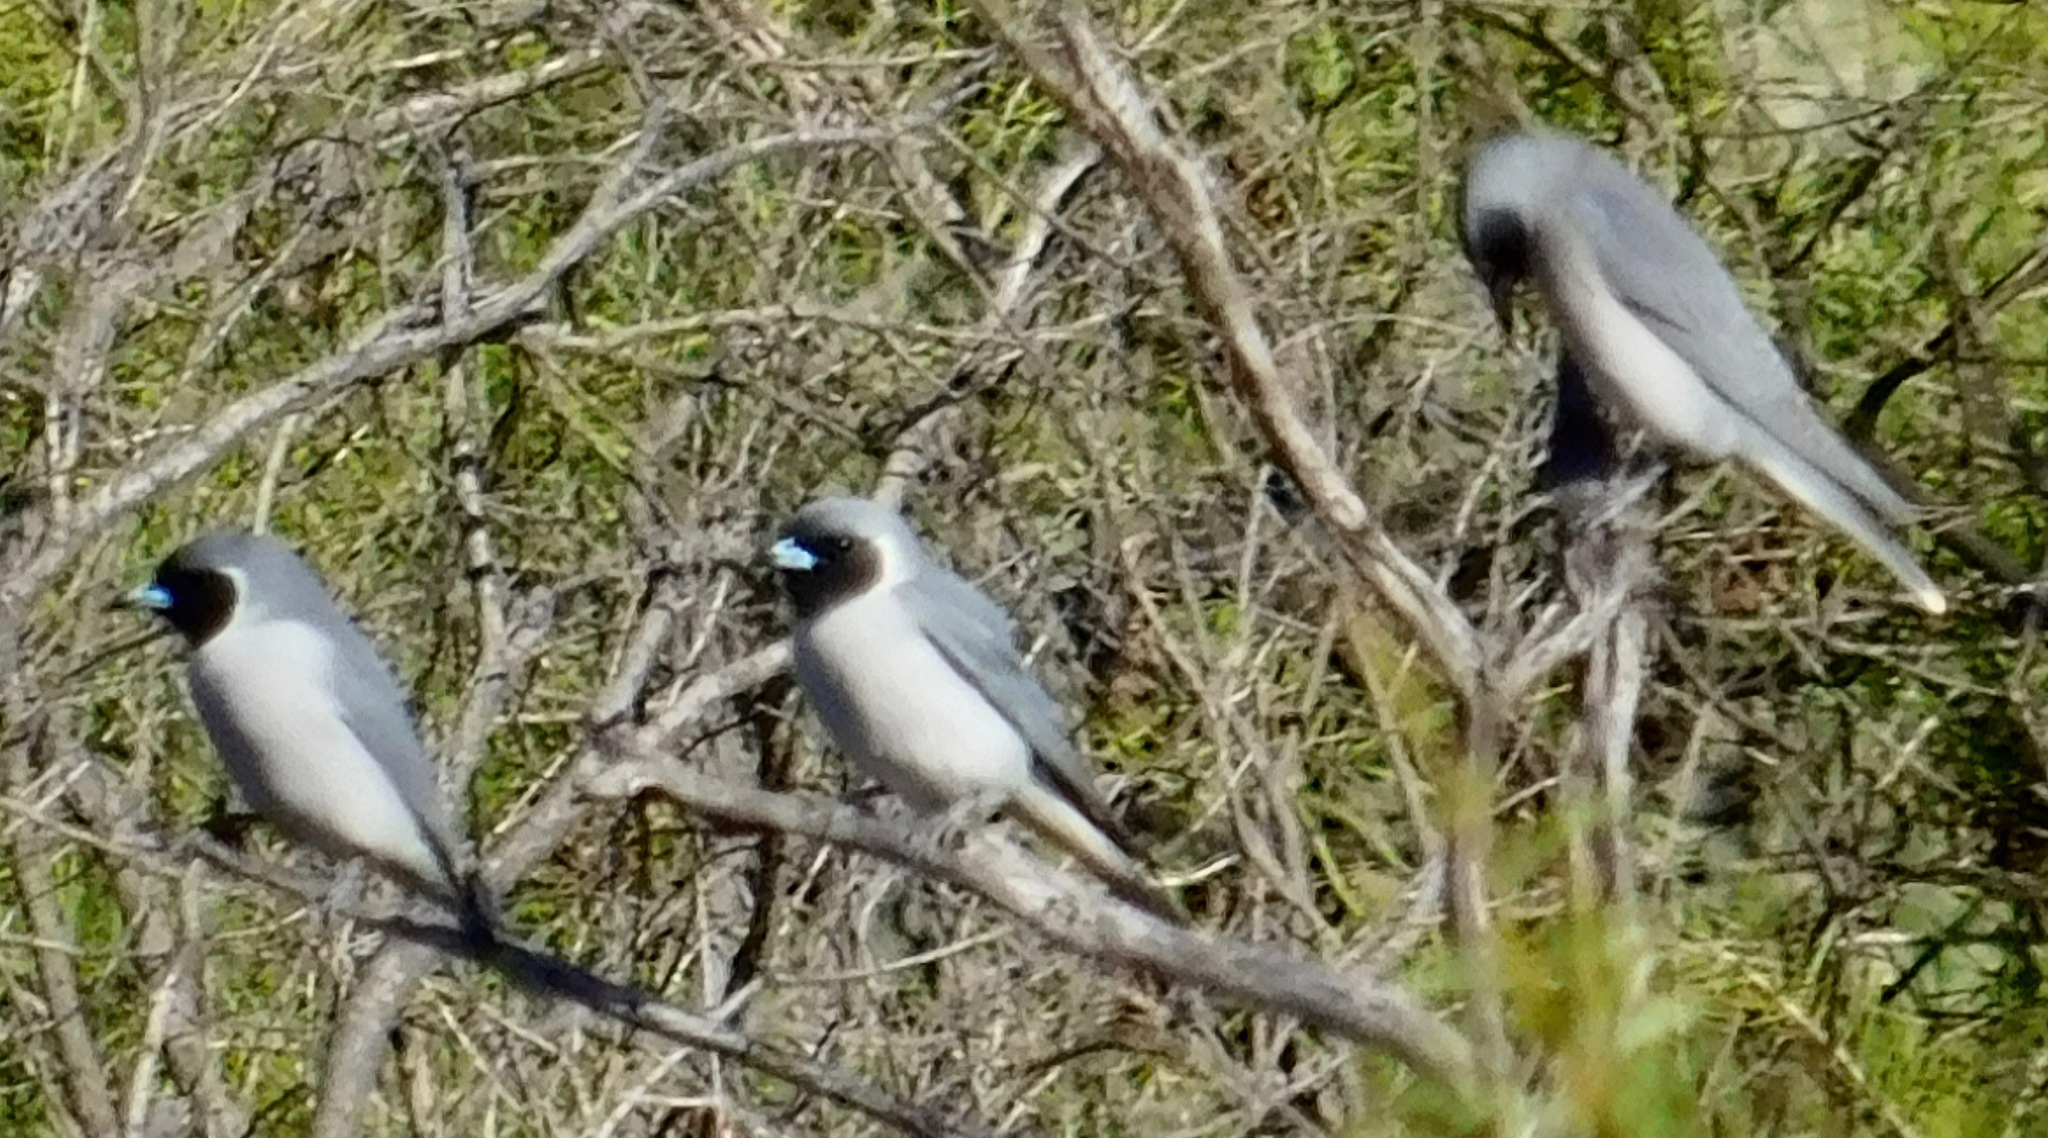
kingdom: Animalia
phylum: Chordata
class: Aves
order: Passeriformes
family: Artamidae
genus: Artamus
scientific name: Artamus personatus
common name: Masked woodswallow
